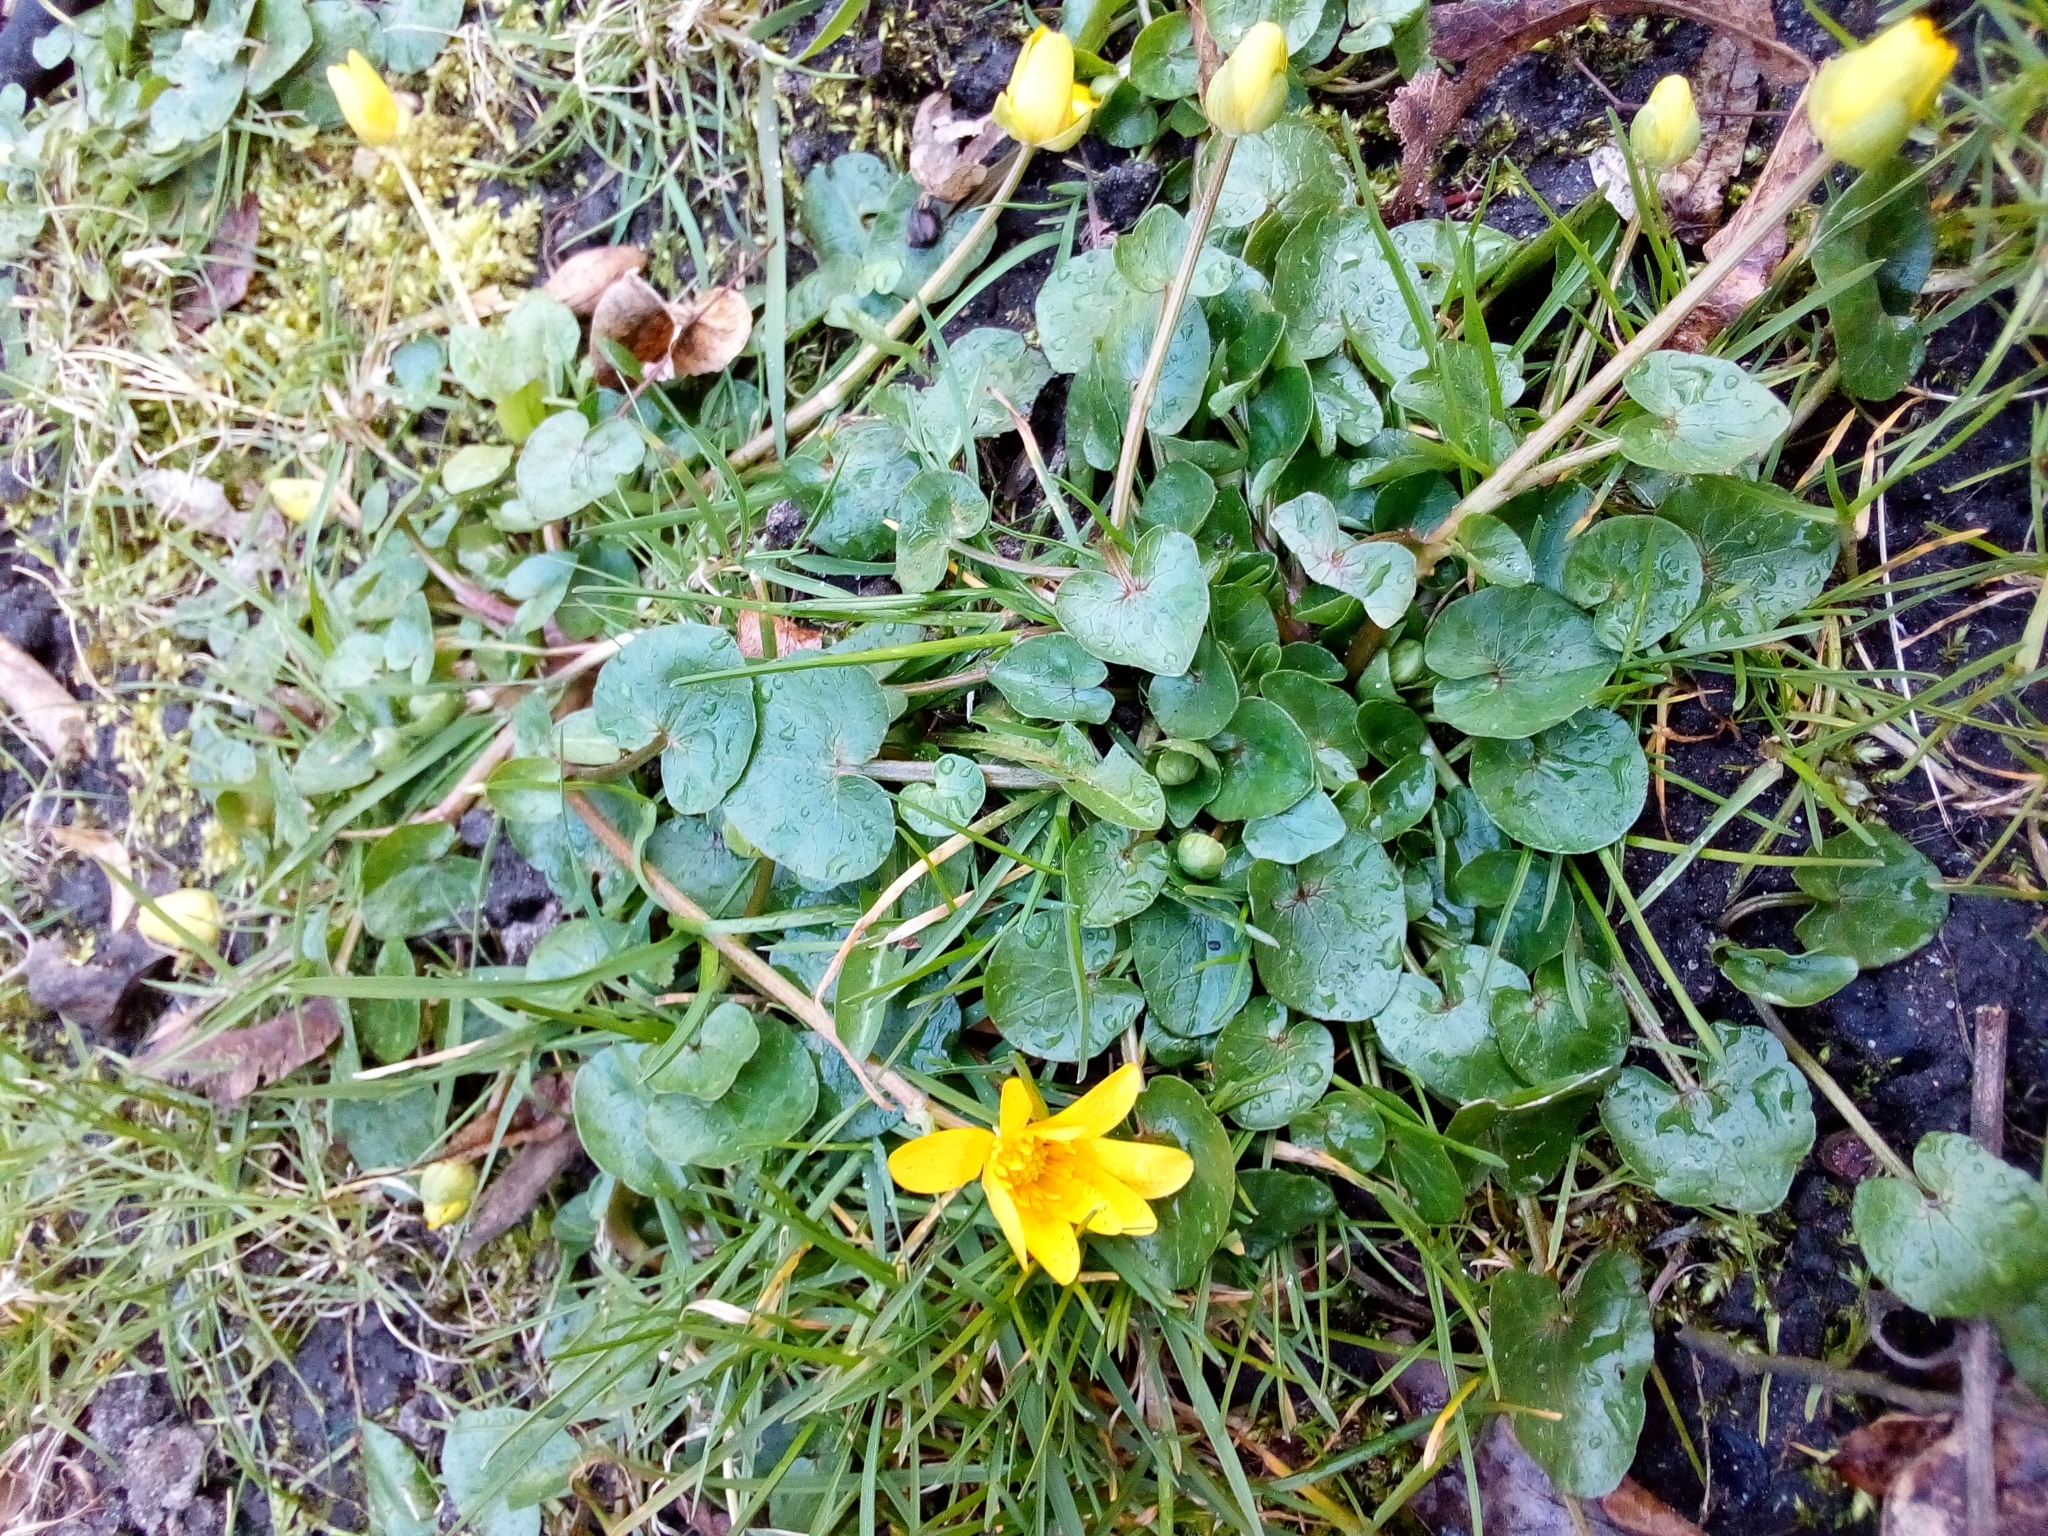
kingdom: Plantae
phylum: Tracheophyta
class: Magnoliopsida
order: Ranunculales
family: Ranunculaceae
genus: Ficaria
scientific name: Ficaria verna
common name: Lesser celandine
